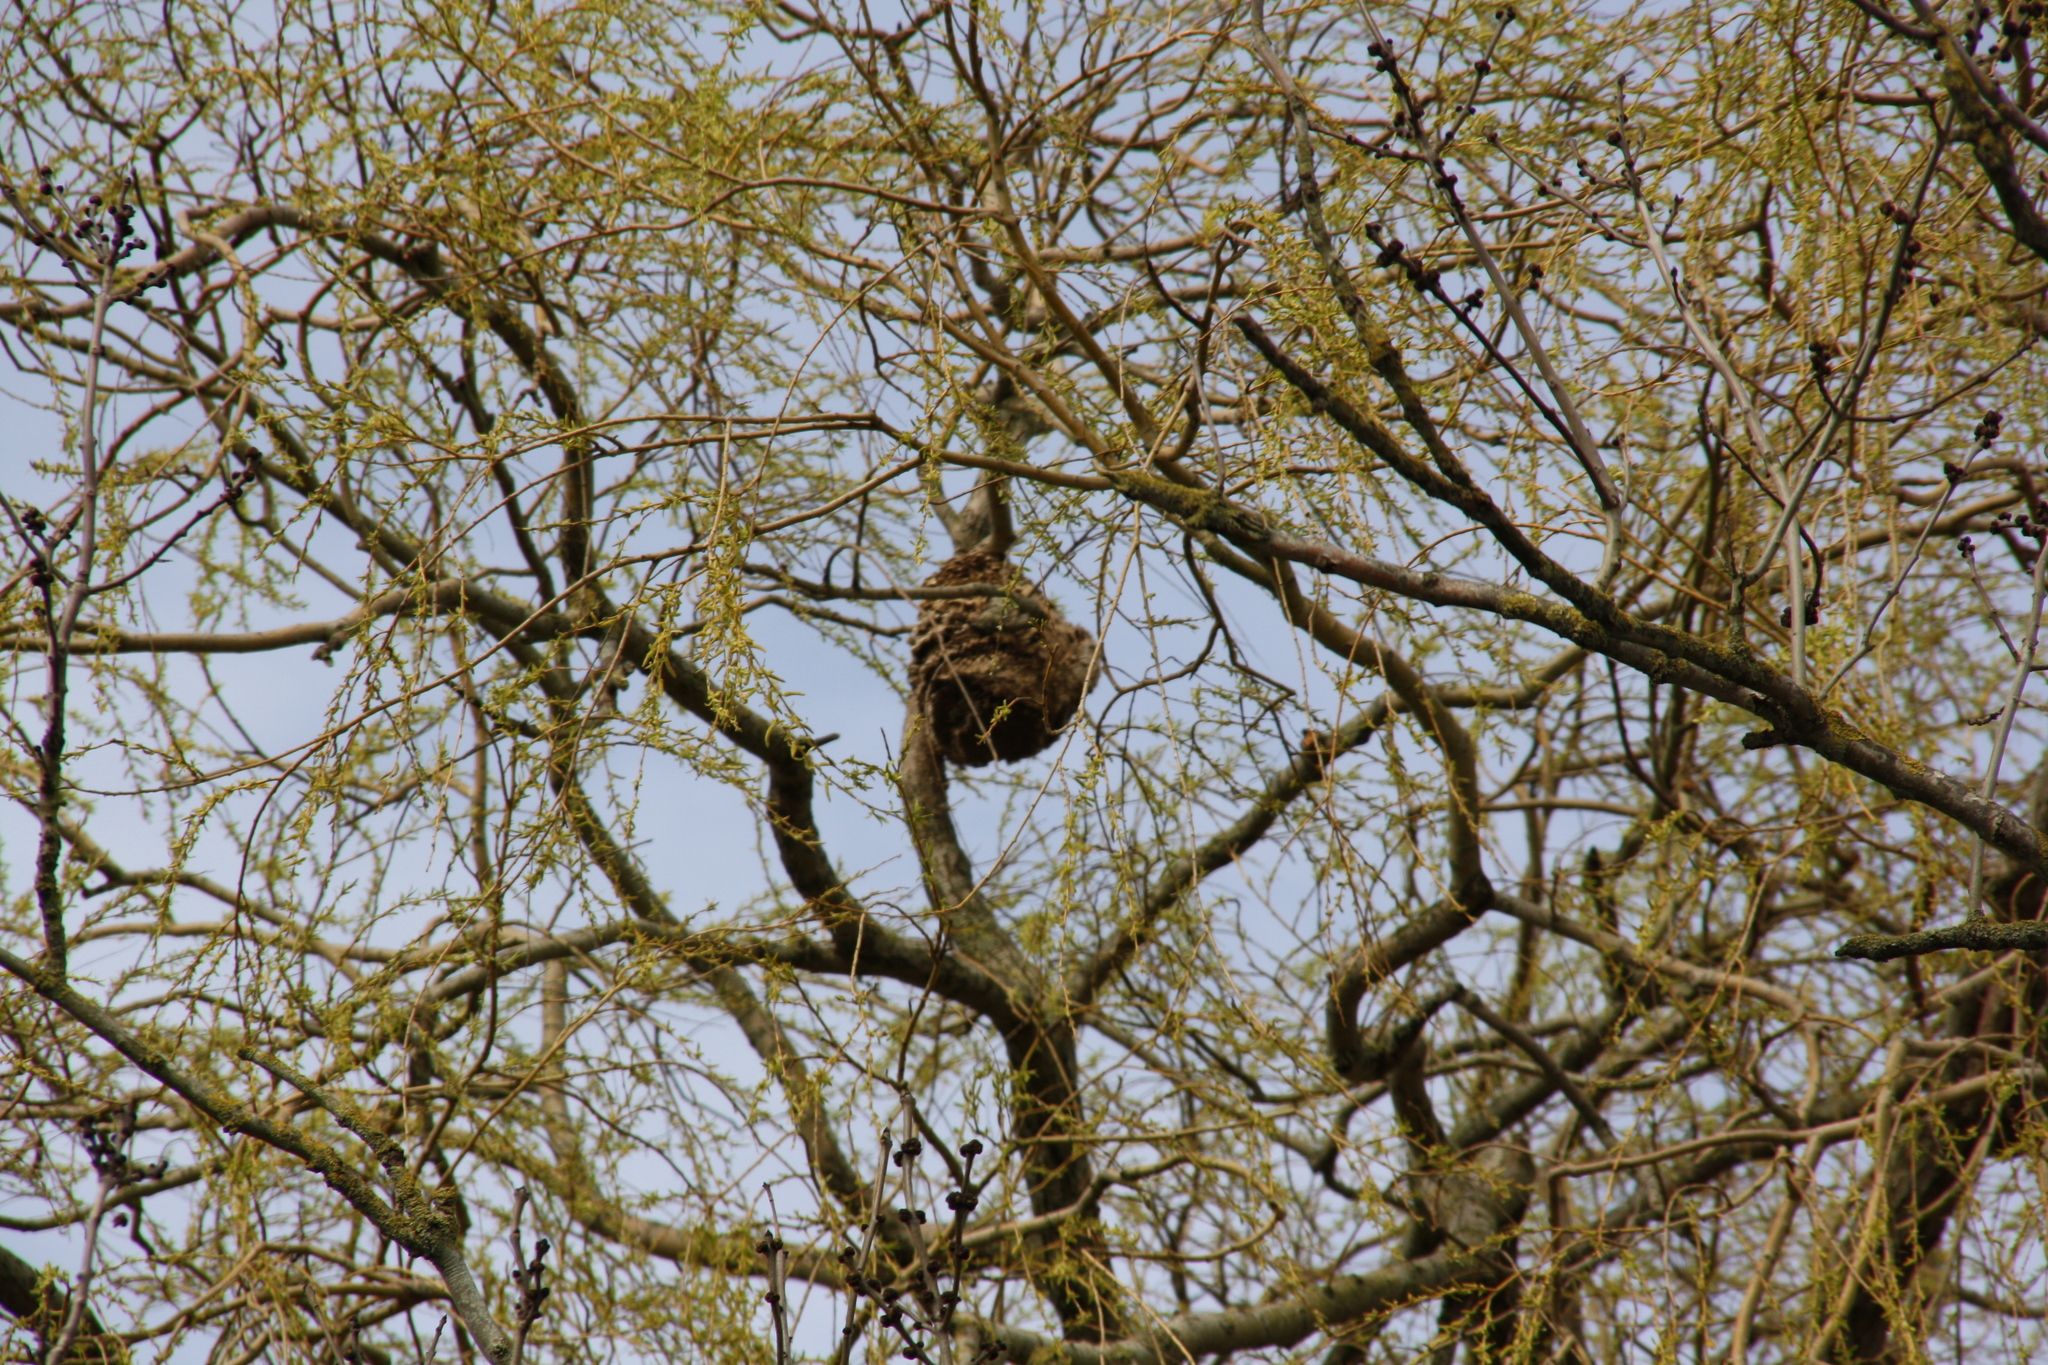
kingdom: Animalia
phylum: Arthropoda
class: Insecta
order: Hymenoptera
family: Vespidae
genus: Vespa
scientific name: Vespa velutina
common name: Asian hornet
